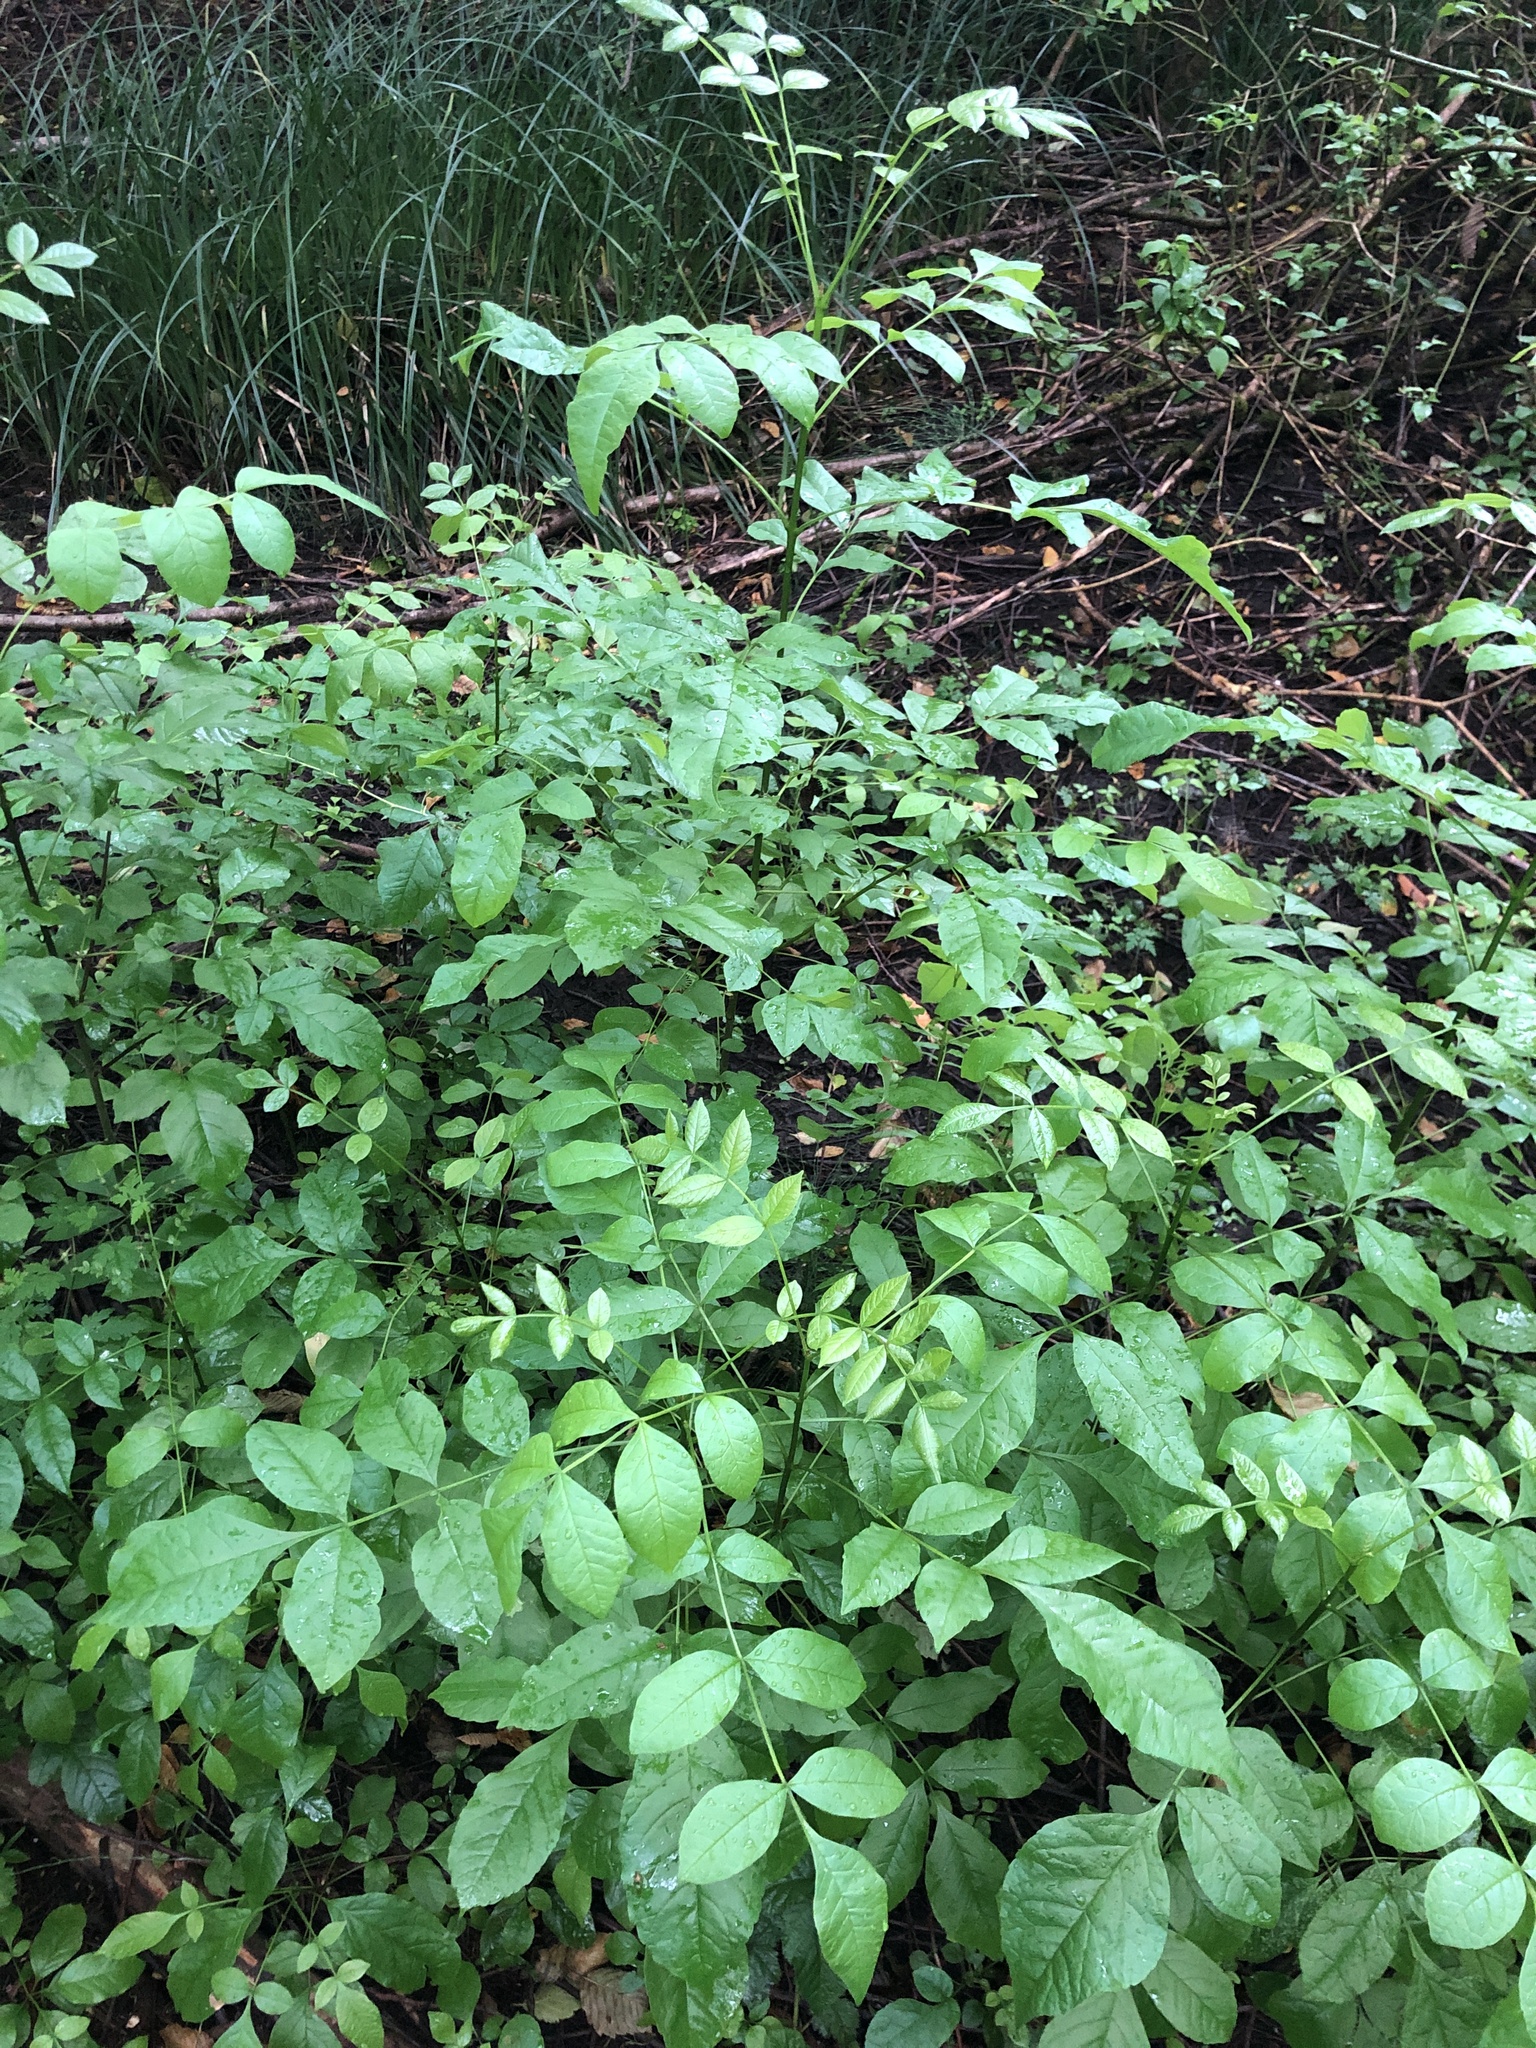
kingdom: Plantae
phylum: Tracheophyta
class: Magnoliopsida
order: Lamiales
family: Oleaceae
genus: Fraxinus
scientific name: Fraxinus latifolia
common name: Oregon ash
